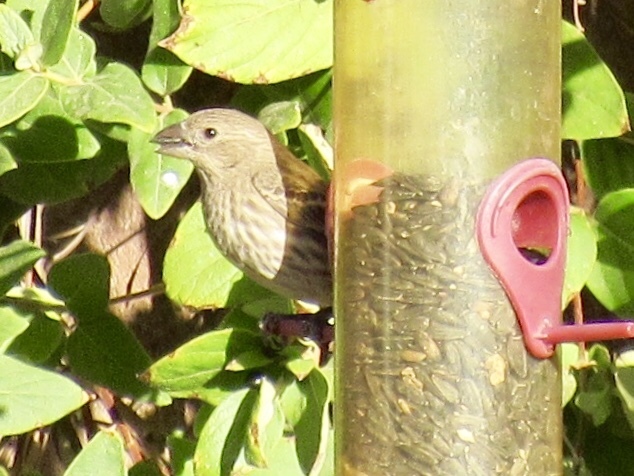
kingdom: Animalia
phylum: Chordata
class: Aves
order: Passeriformes
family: Fringillidae
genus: Haemorhous
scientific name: Haemorhous mexicanus
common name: House finch
